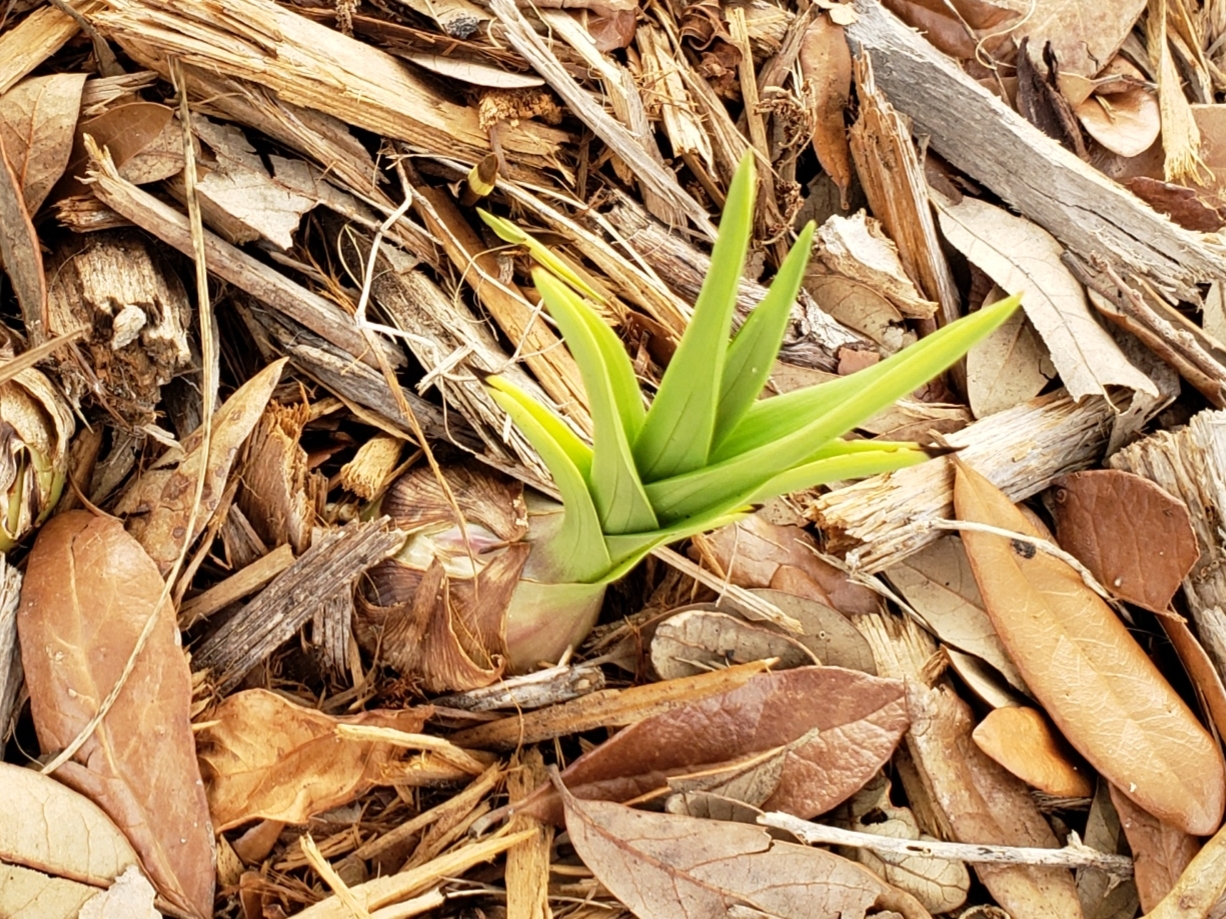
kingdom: Plantae
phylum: Tracheophyta
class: Liliopsida
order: Asparagales
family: Orchidaceae
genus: Eulophia
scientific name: Eulophia graminea
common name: Orchid
